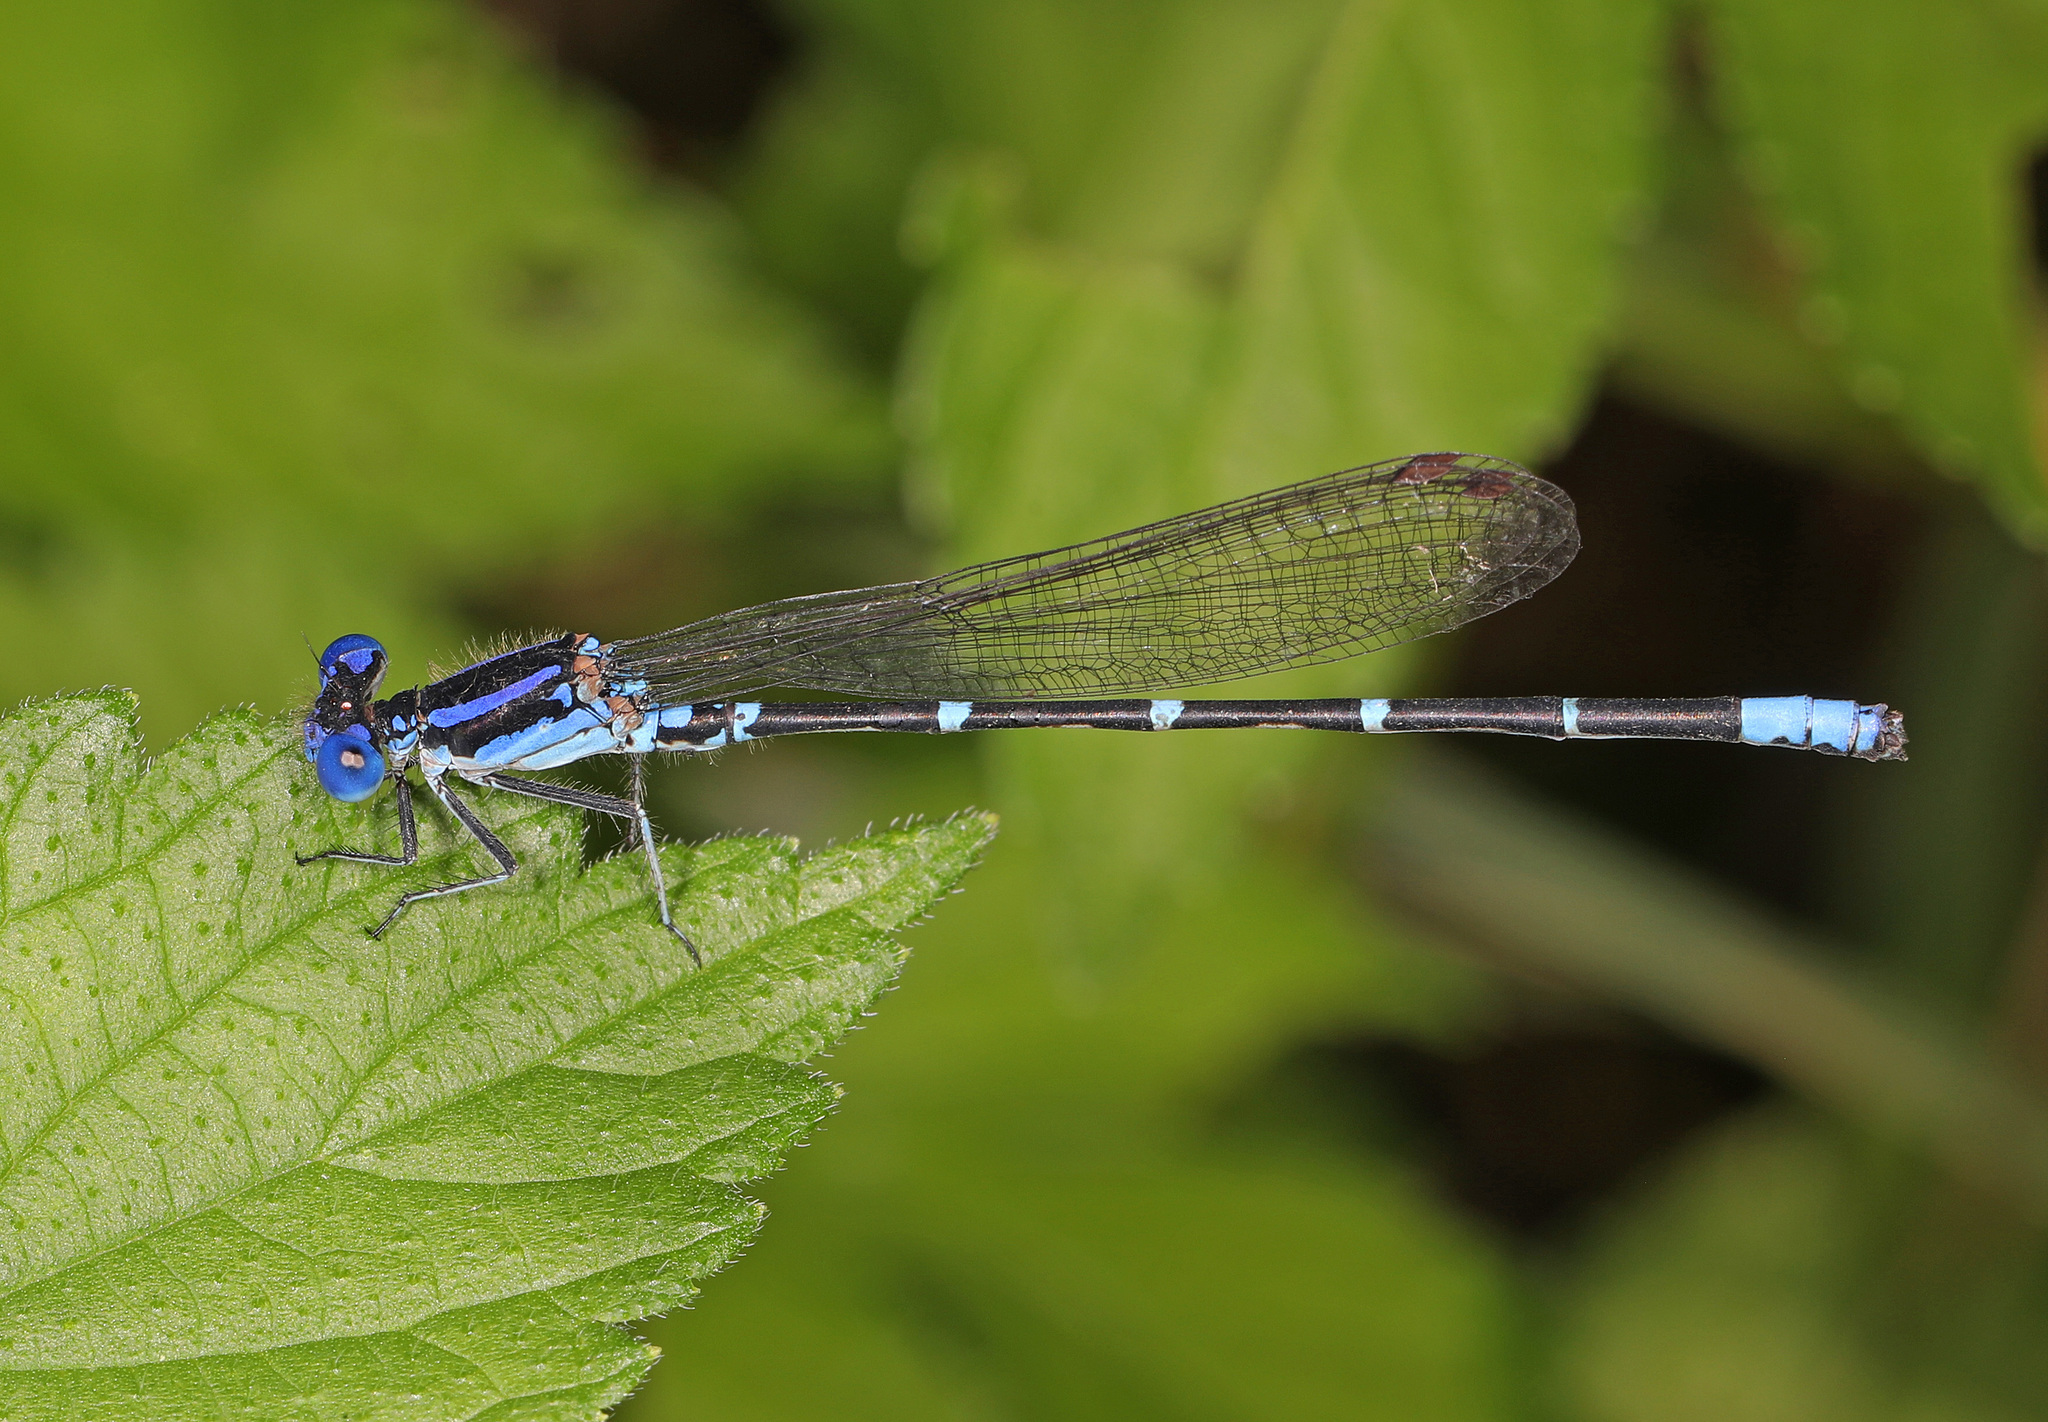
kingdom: Animalia
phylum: Arthropoda
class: Insecta
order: Odonata
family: Coenagrionidae
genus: Argia
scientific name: Argia sedula
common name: Blue-ringed dancer
